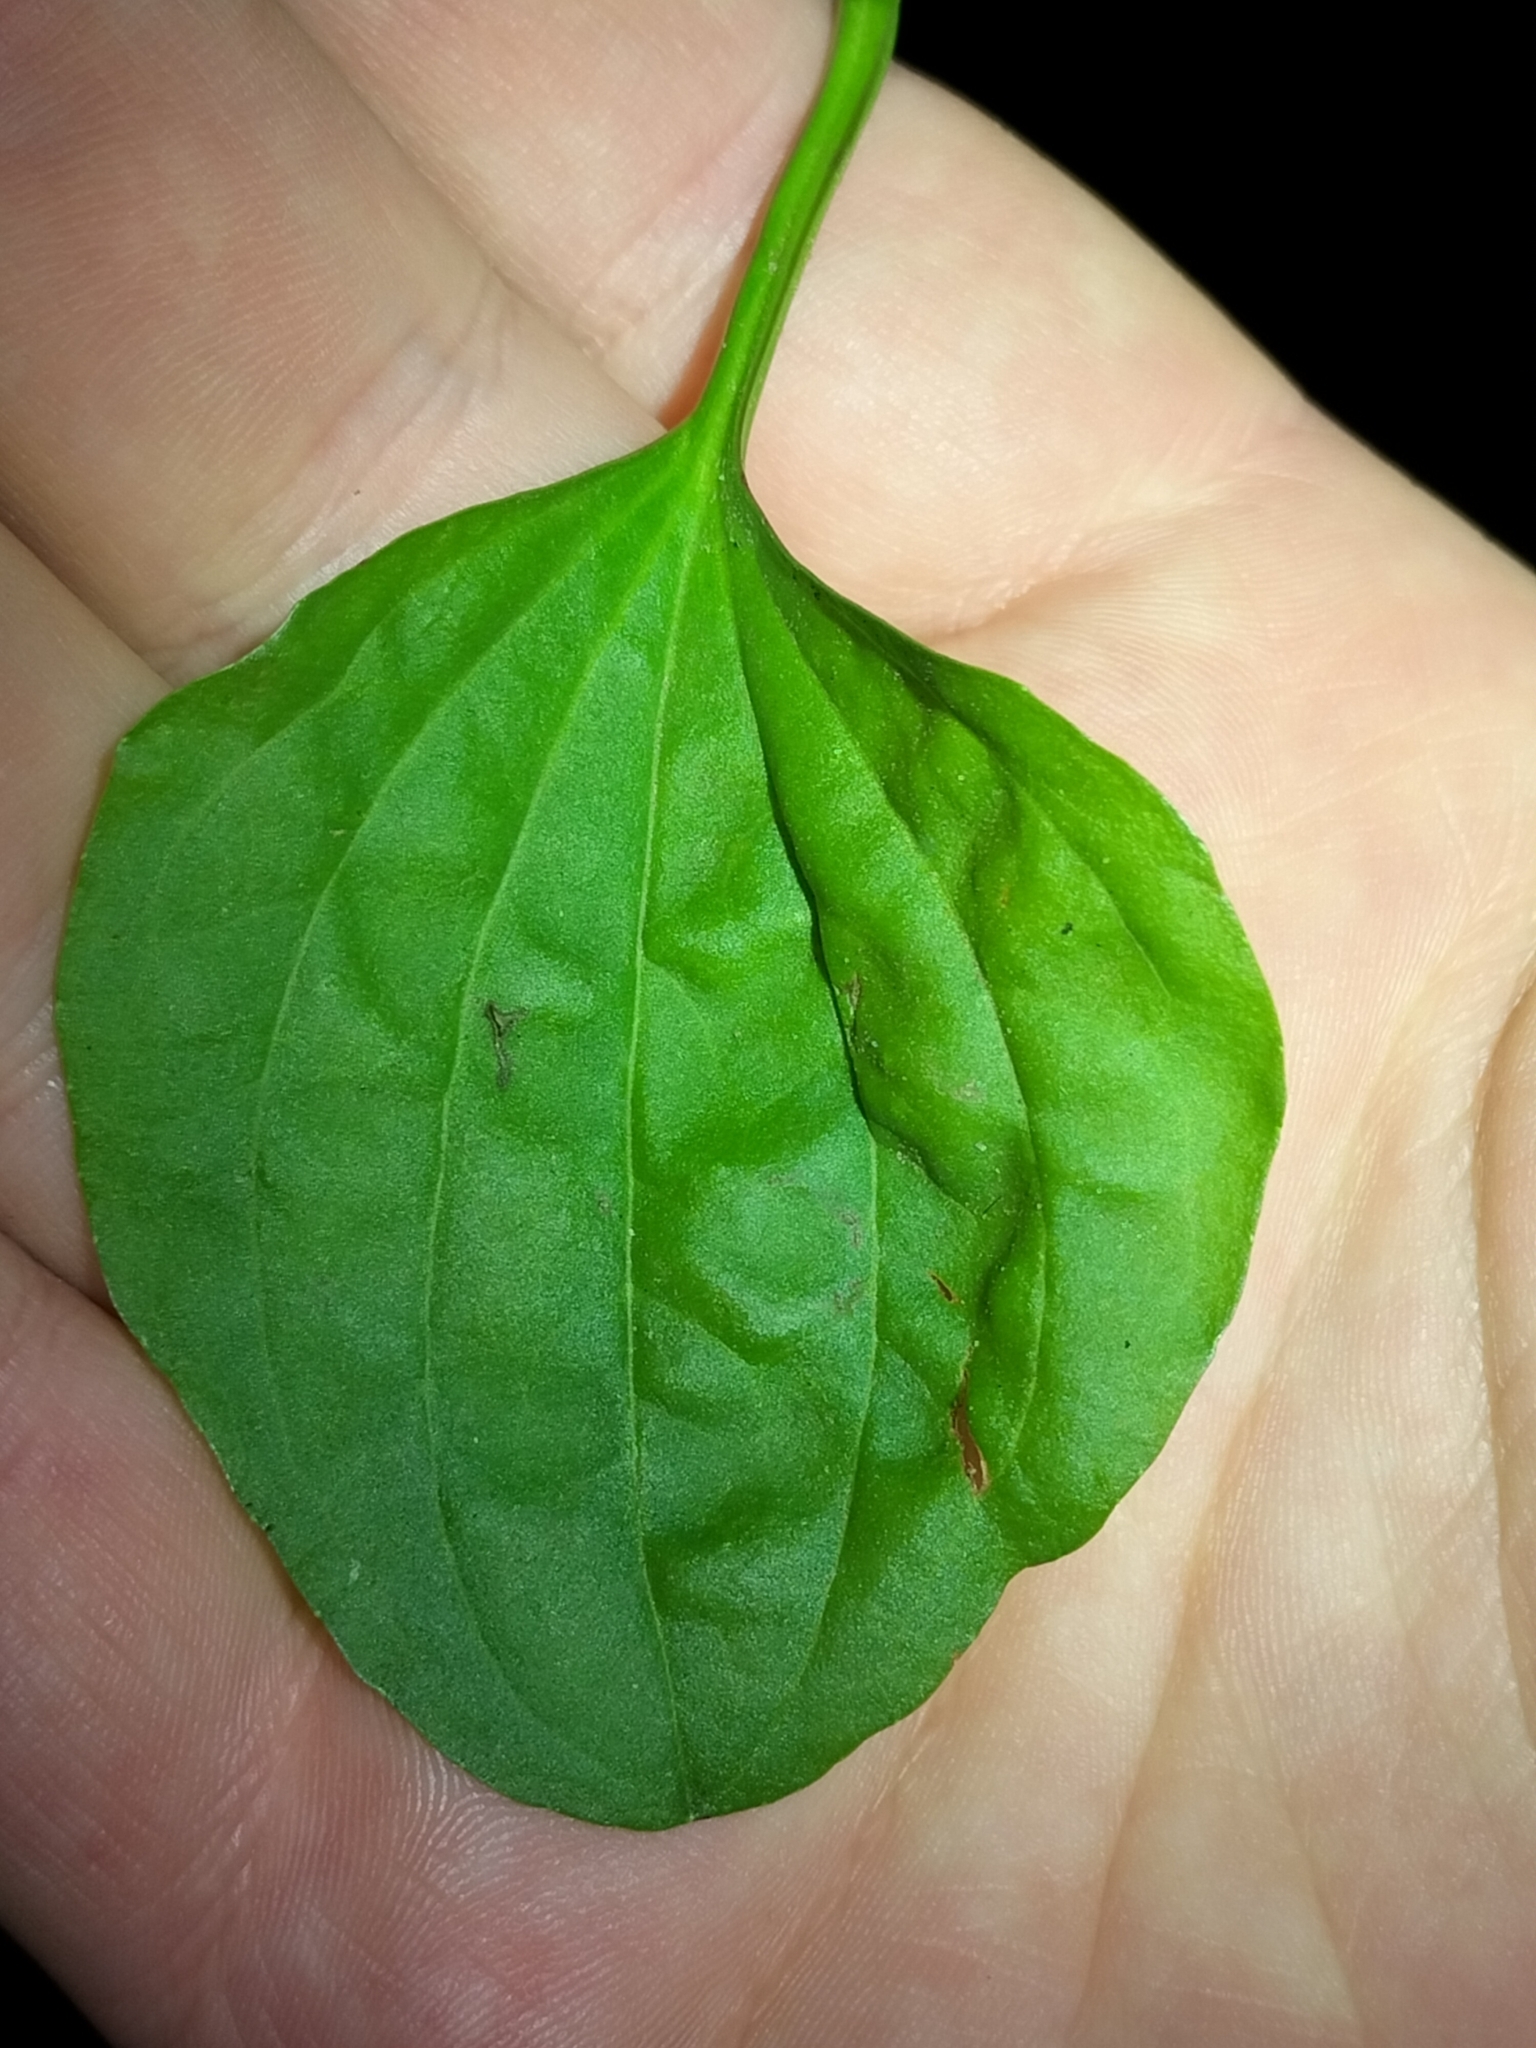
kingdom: Plantae
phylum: Tracheophyta
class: Magnoliopsida
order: Lamiales
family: Plantaginaceae
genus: Plantago
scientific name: Plantago major
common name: Common plantain
